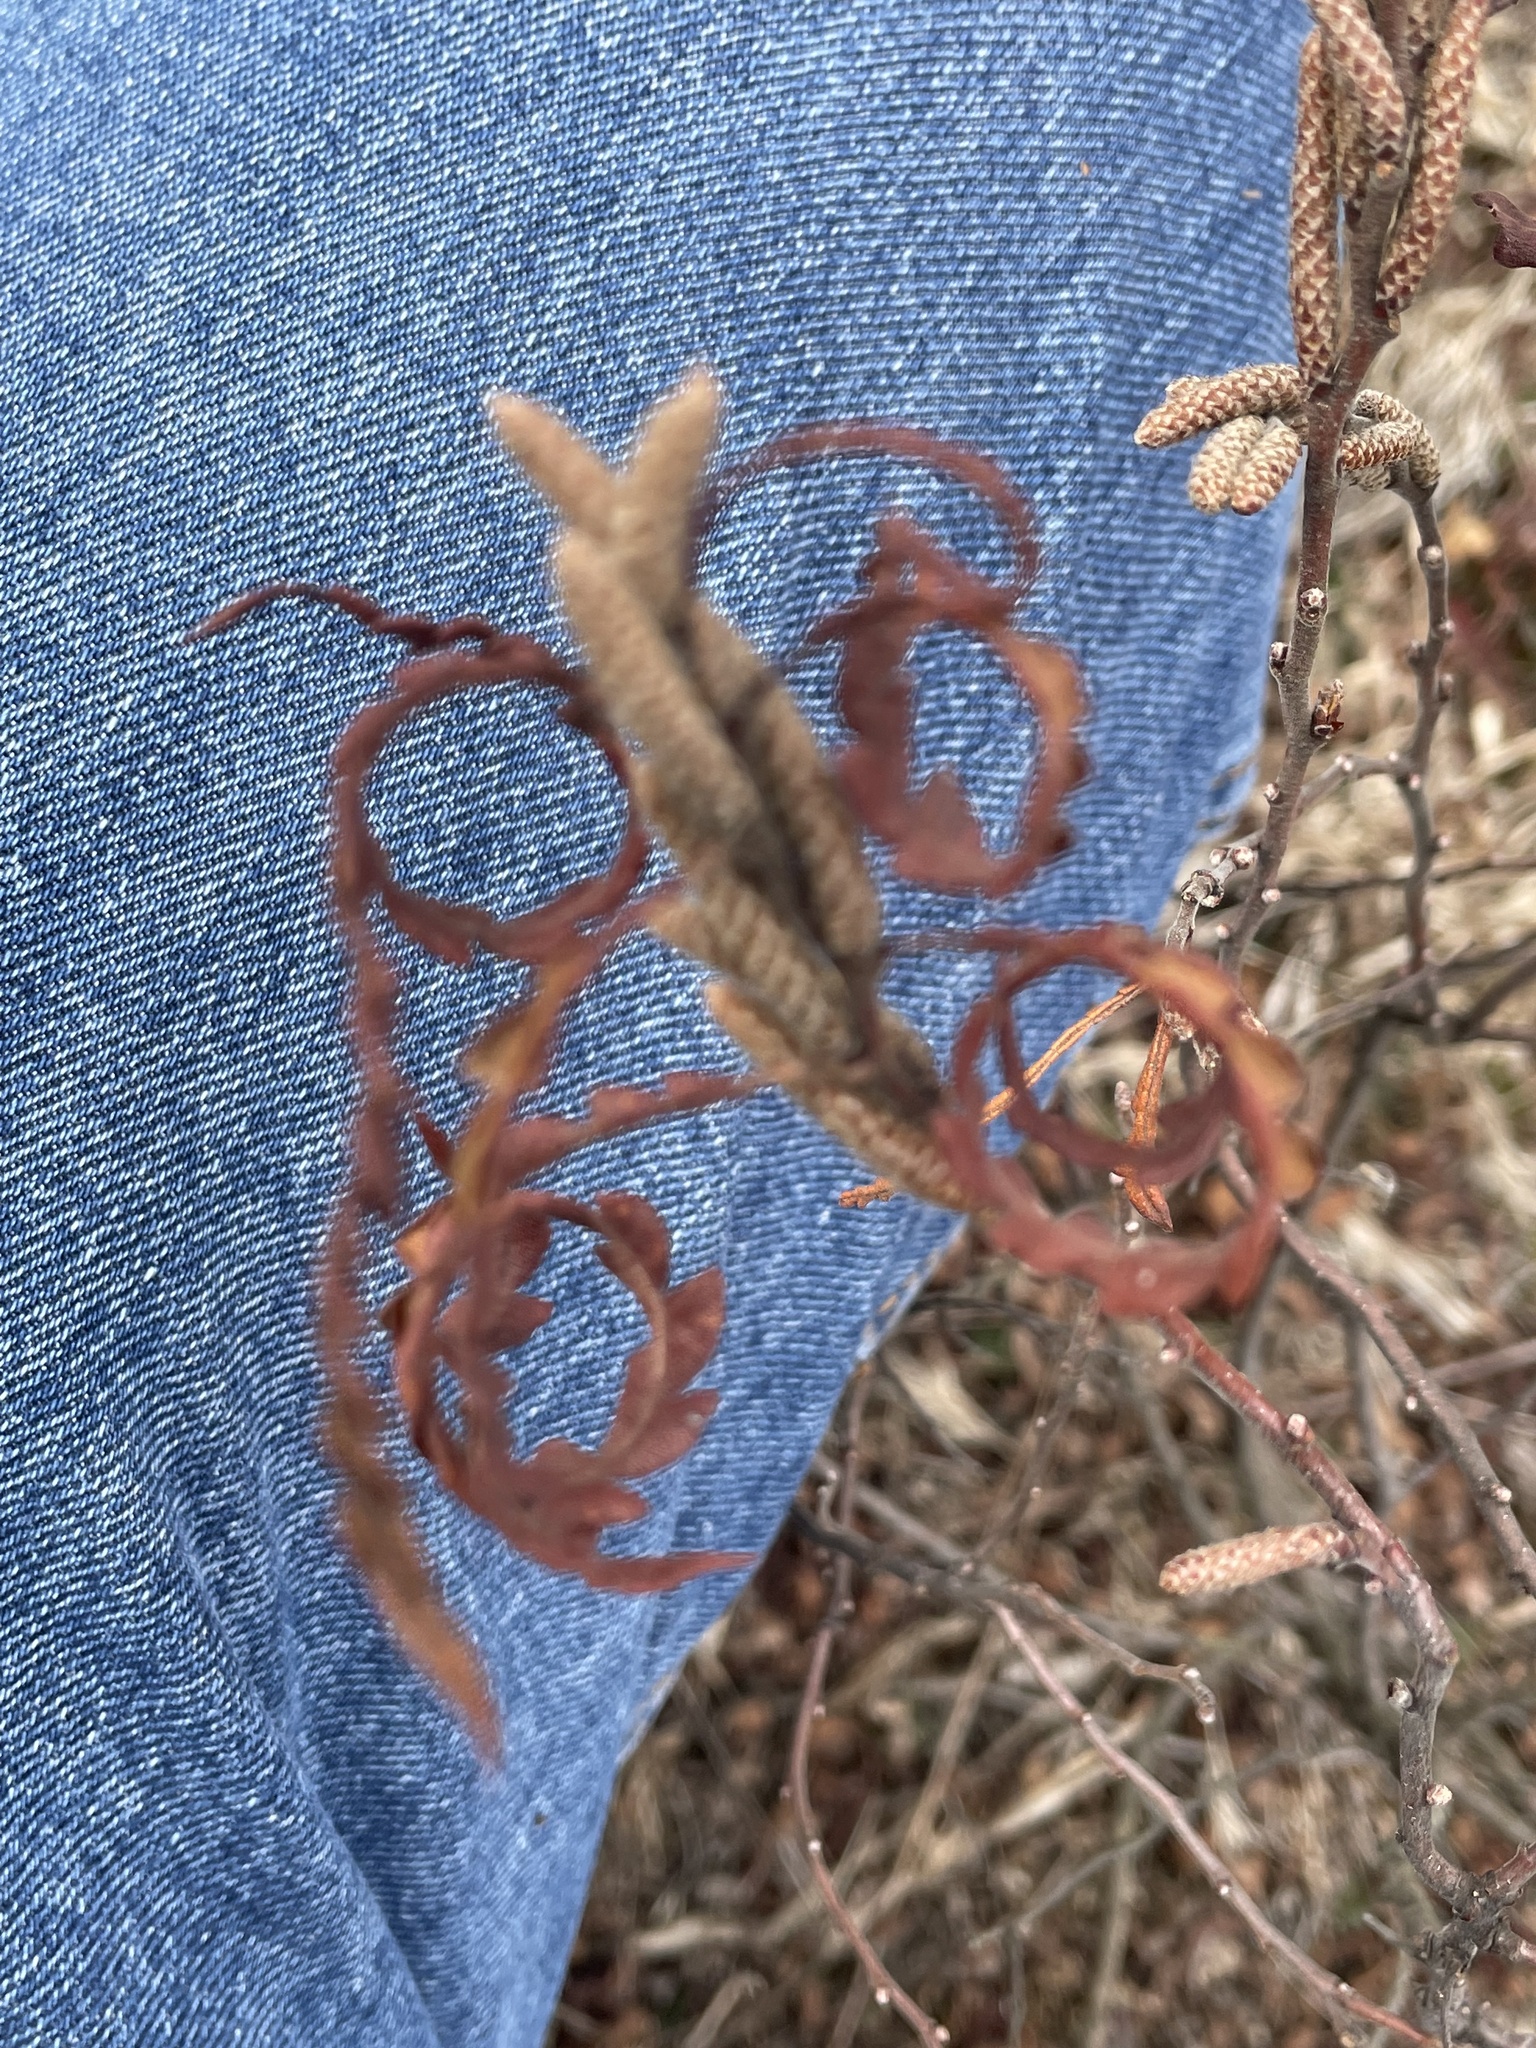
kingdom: Plantae
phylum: Tracheophyta
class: Magnoliopsida
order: Fagales
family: Myricaceae
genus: Comptonia
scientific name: Comptonia peregrina
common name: Sweet-fern
